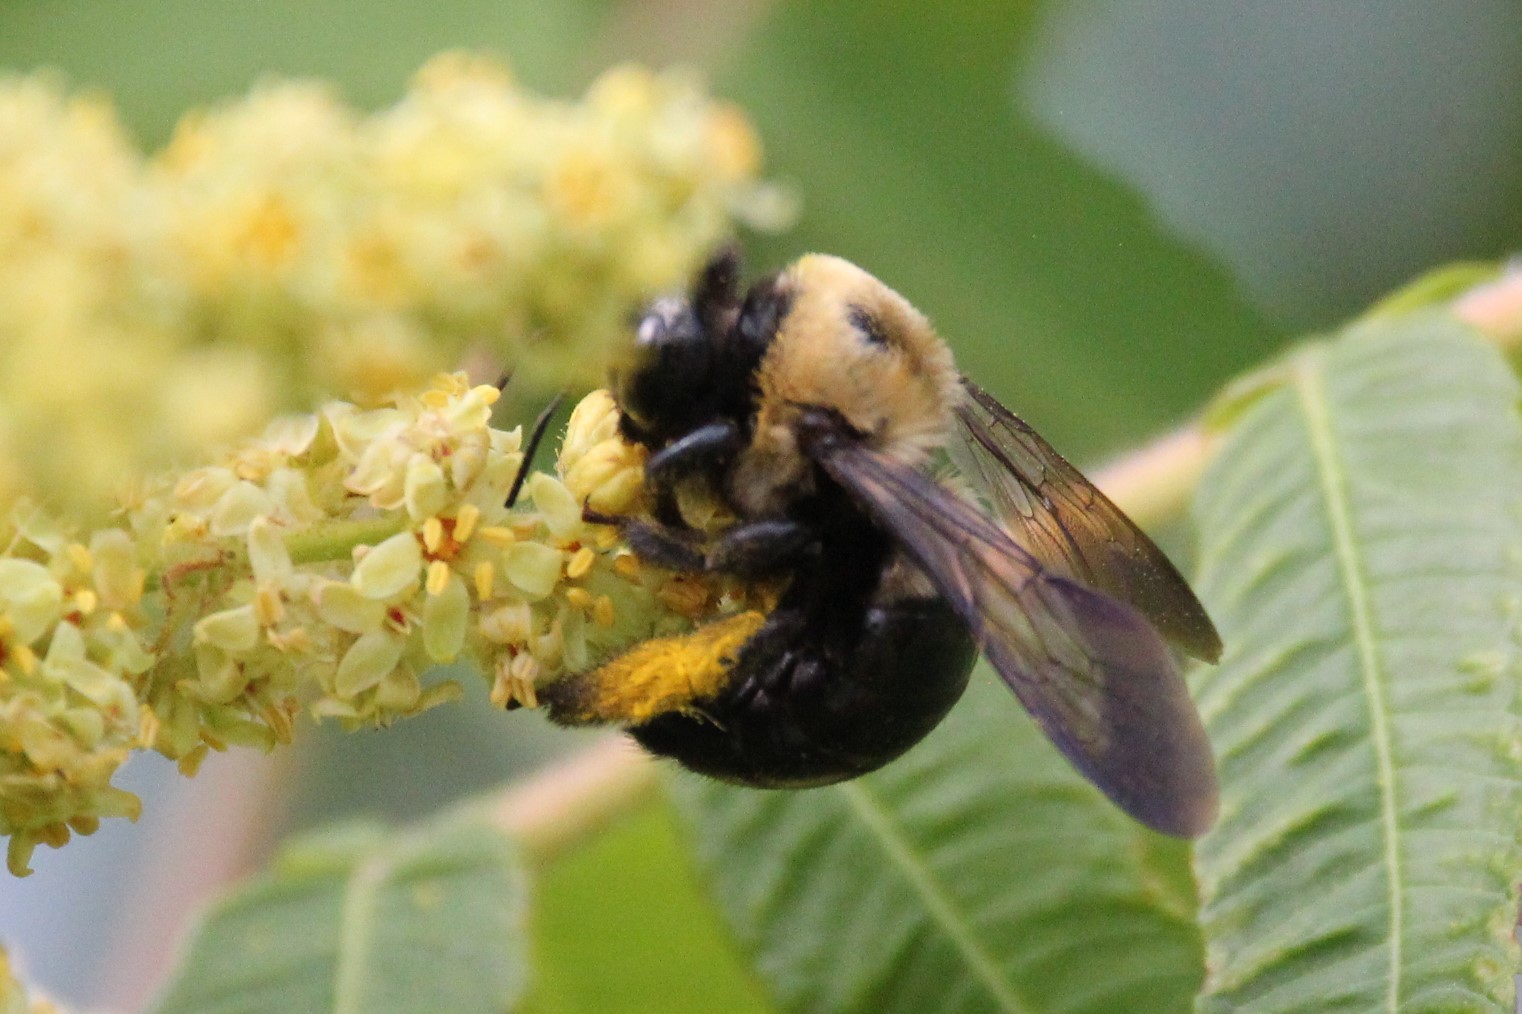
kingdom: Animalia
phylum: Arthropoda
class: Insecta
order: Hymenoptera
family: Apidae
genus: Xylocopa
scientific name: Xylocopa virginica
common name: Carpenter bee
